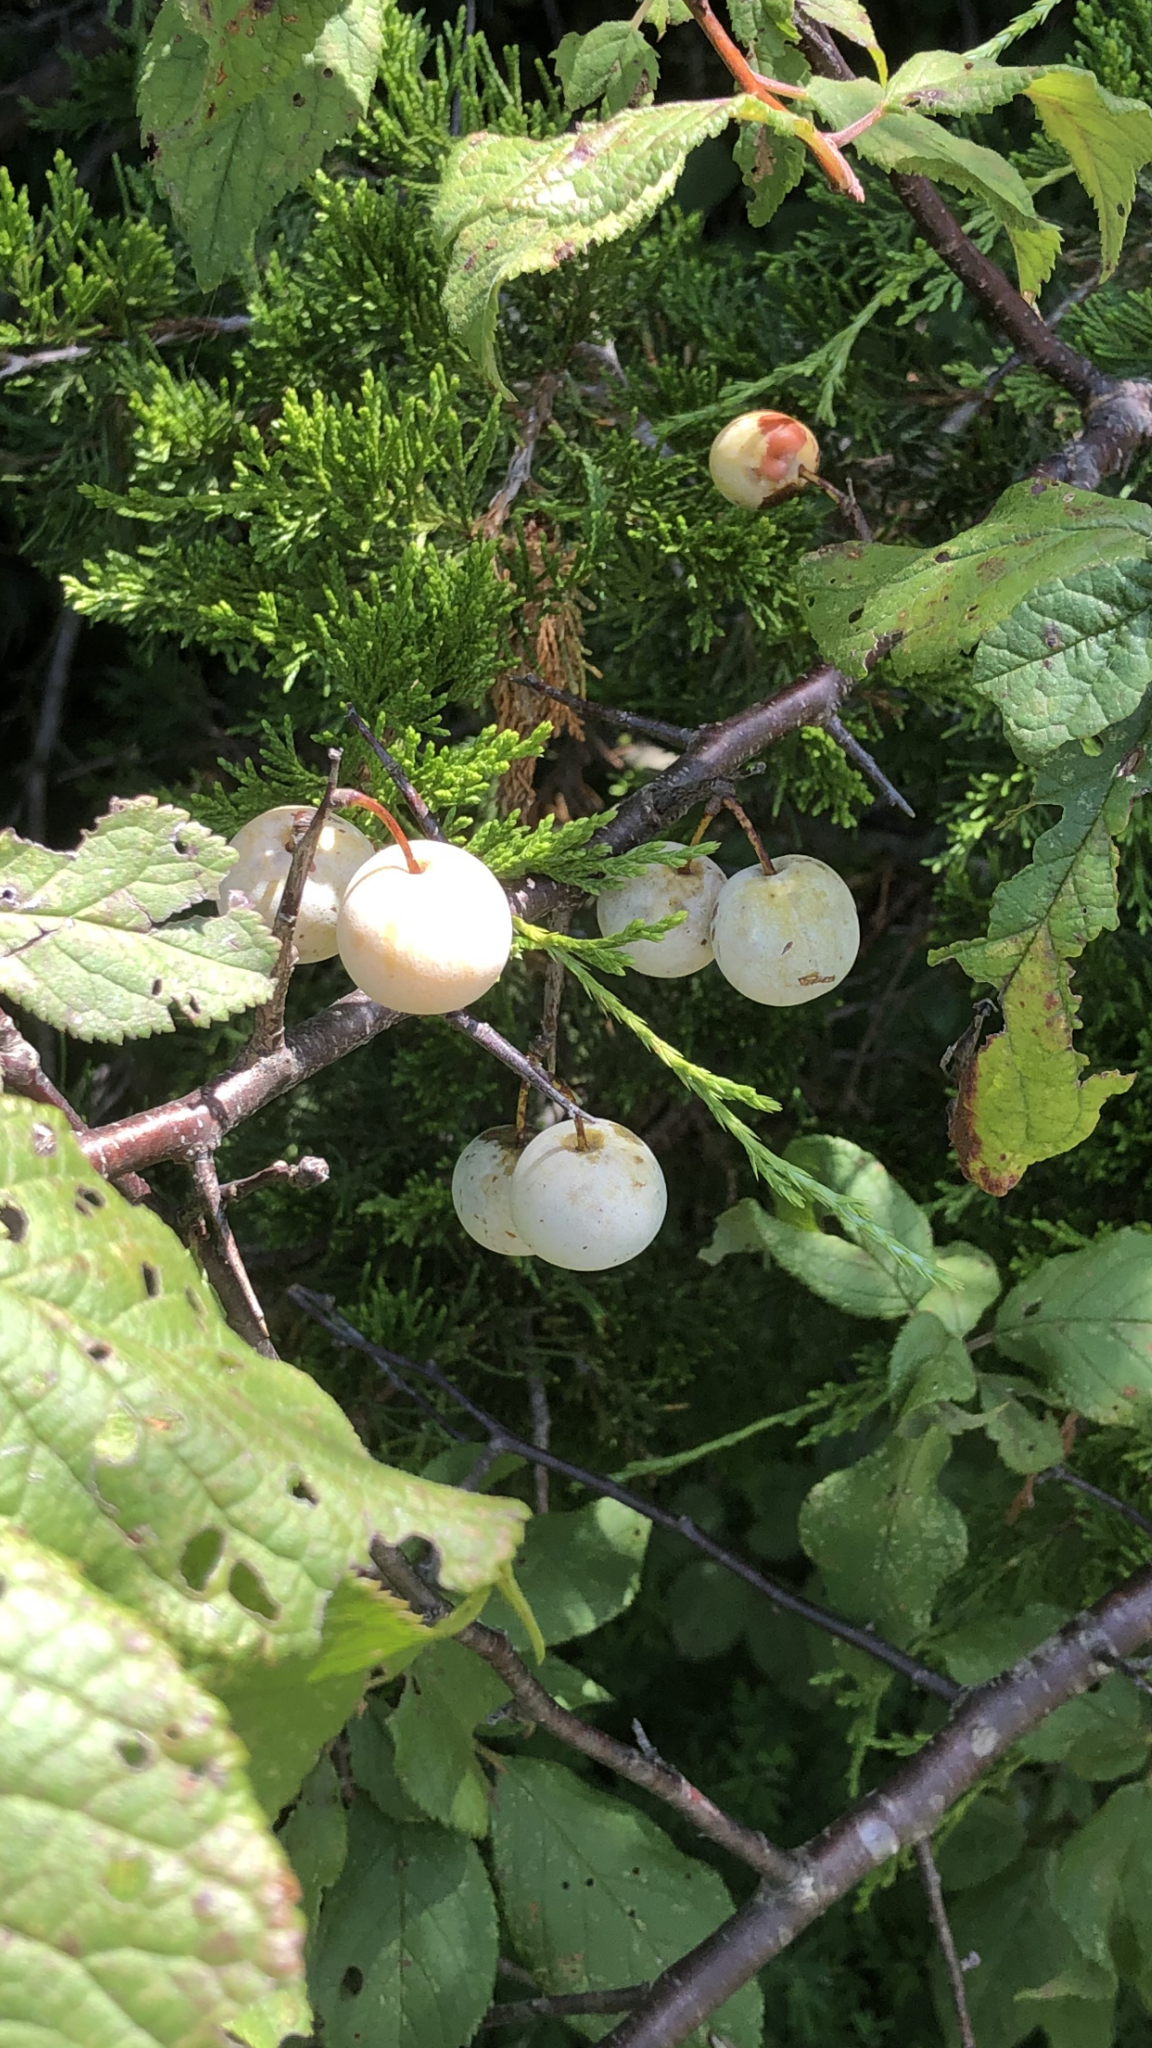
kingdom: Plantae
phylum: Tracheophyta
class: Magnoliopsida
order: Rosales
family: Rosaceae
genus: Prunus
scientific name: Prunus mexicana
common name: Mexican plum
